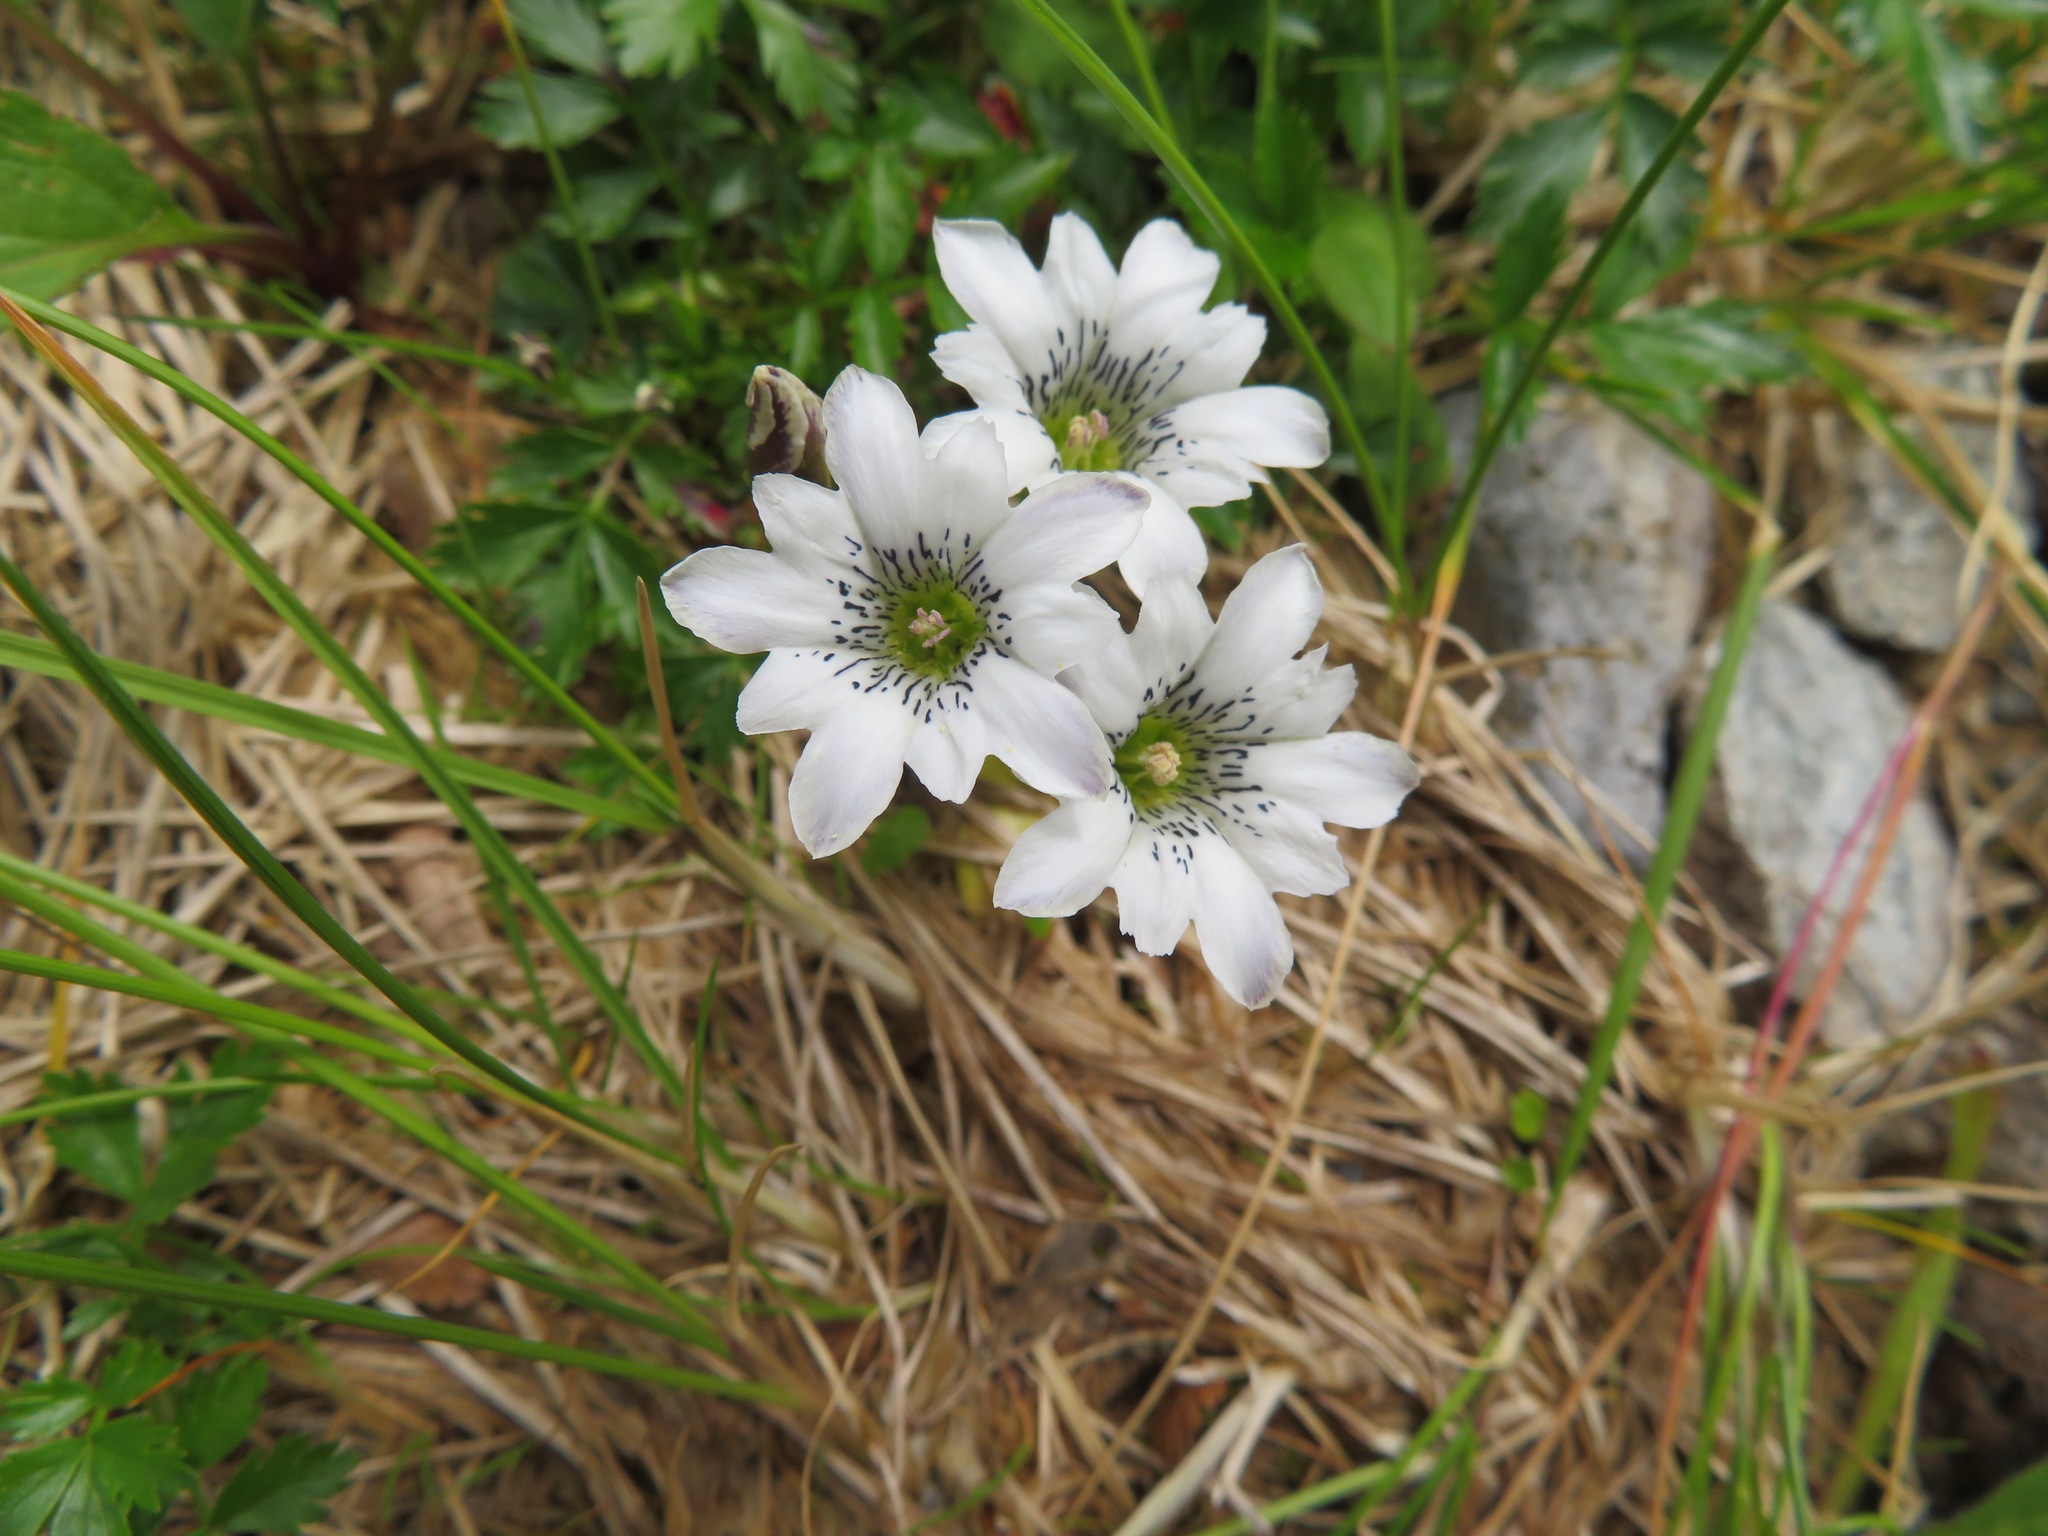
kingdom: Plantae
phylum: Tracheophyta
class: Magnoliopsida
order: Gentianales
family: Gentianaceae
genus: Gentiana
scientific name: Gentiana thunbergii
